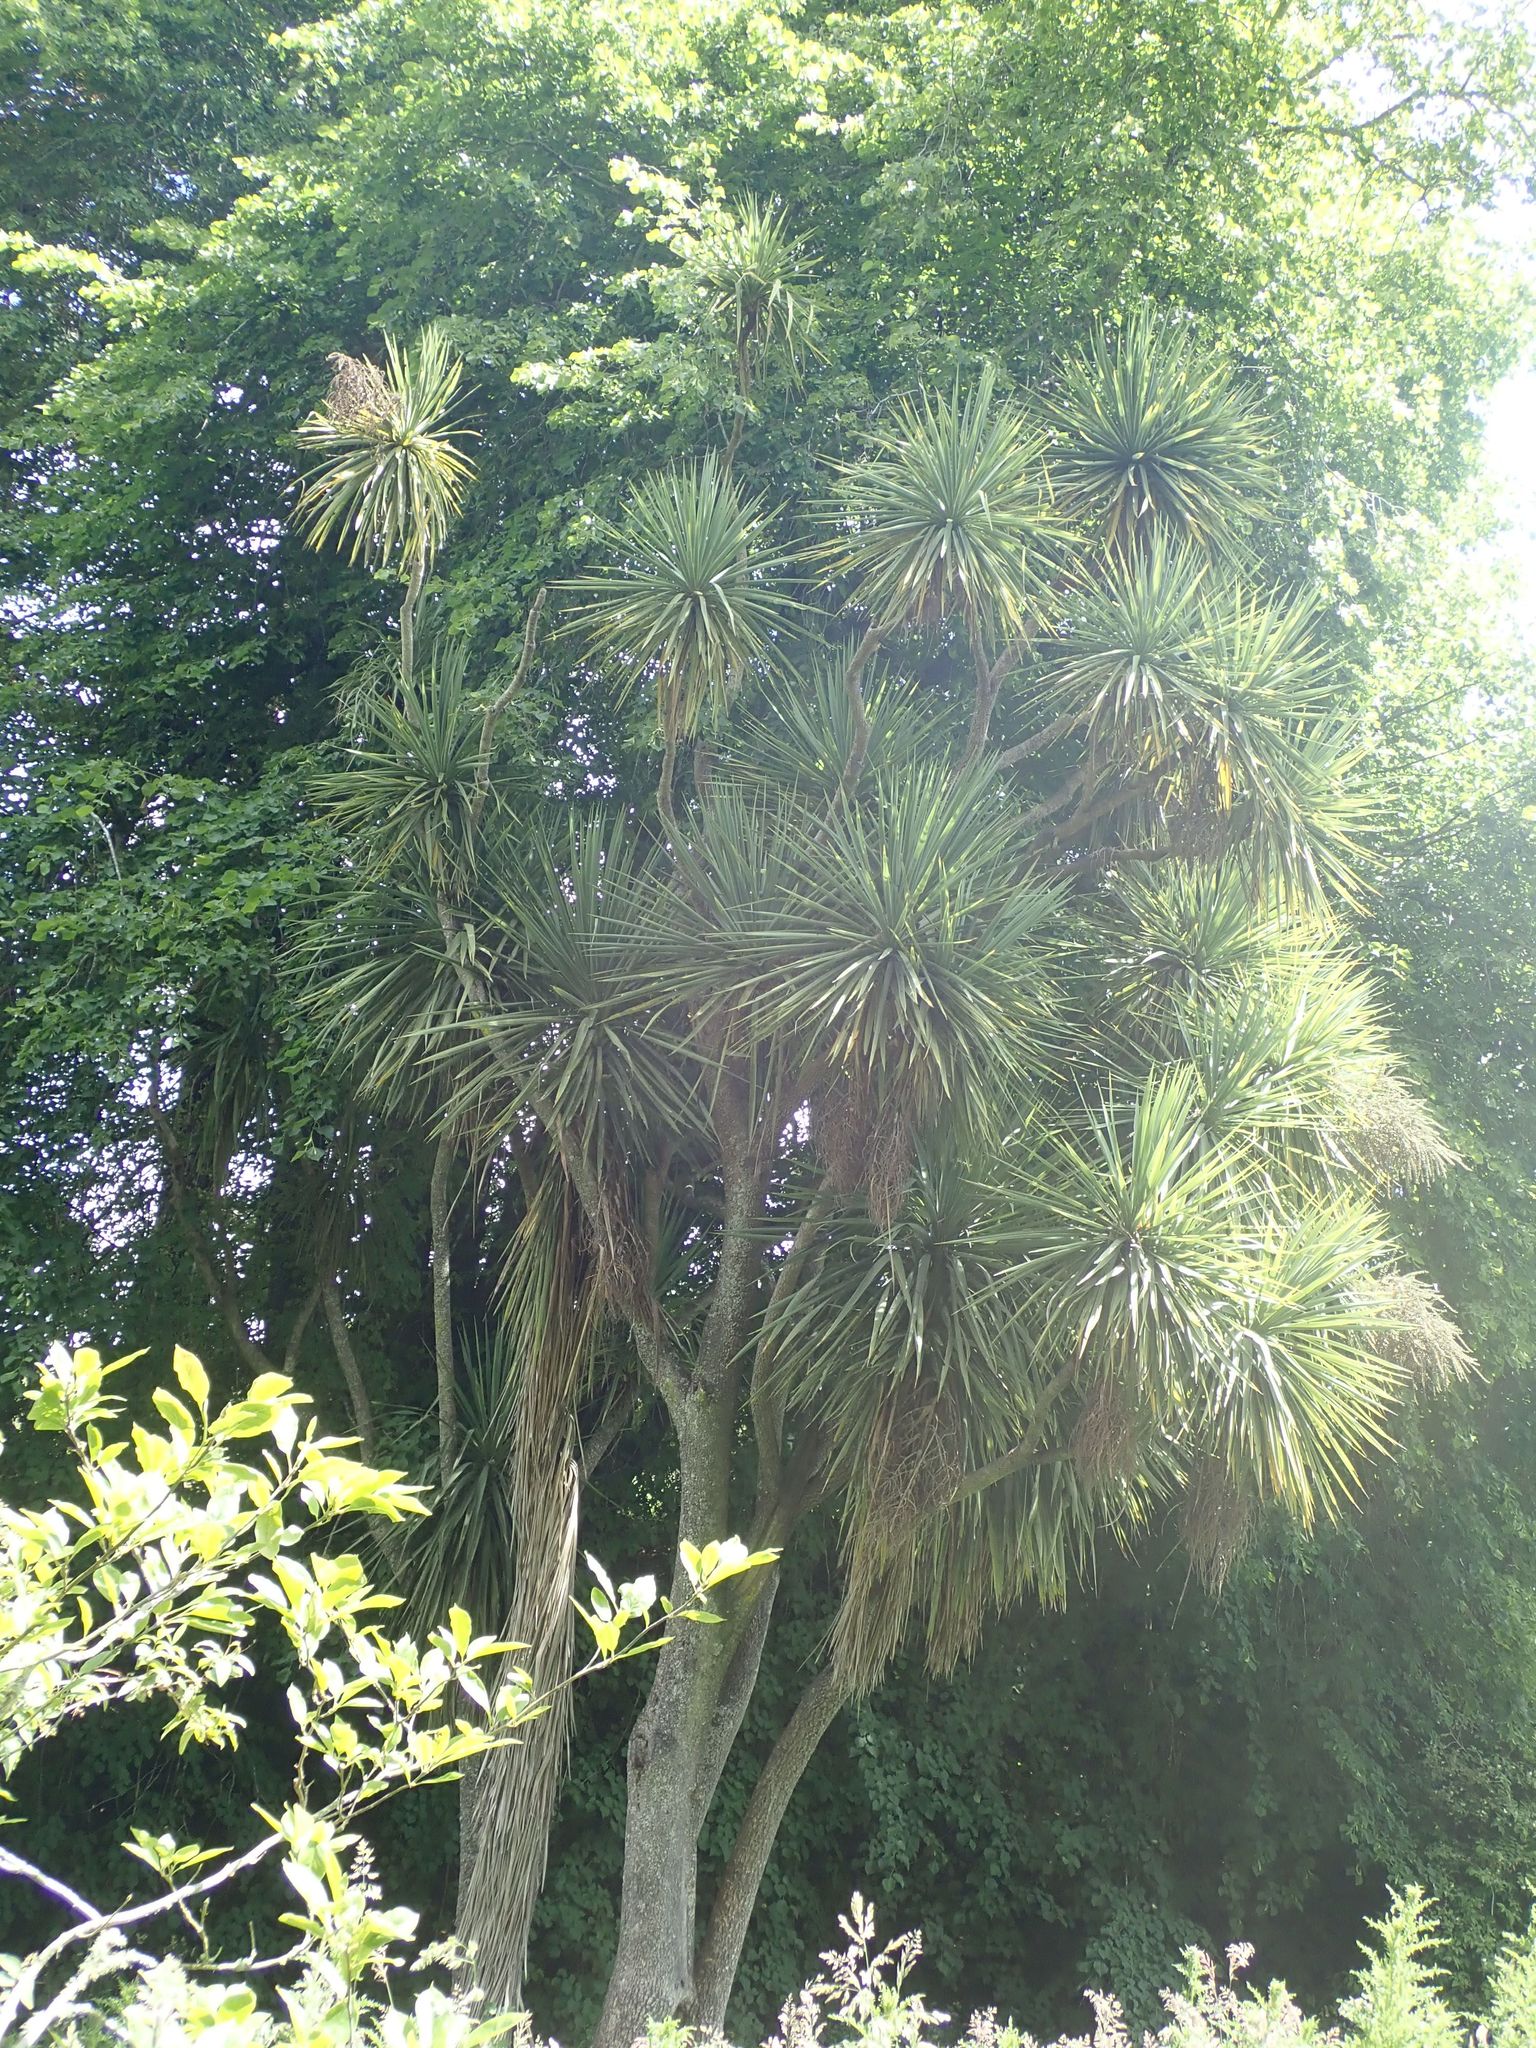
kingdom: Plantae
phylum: Tracheophyta
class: Liliopsida
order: Asparagales
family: Asparagaceae
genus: Cordyline
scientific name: Cordyline australis
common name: Cabbage-palm
